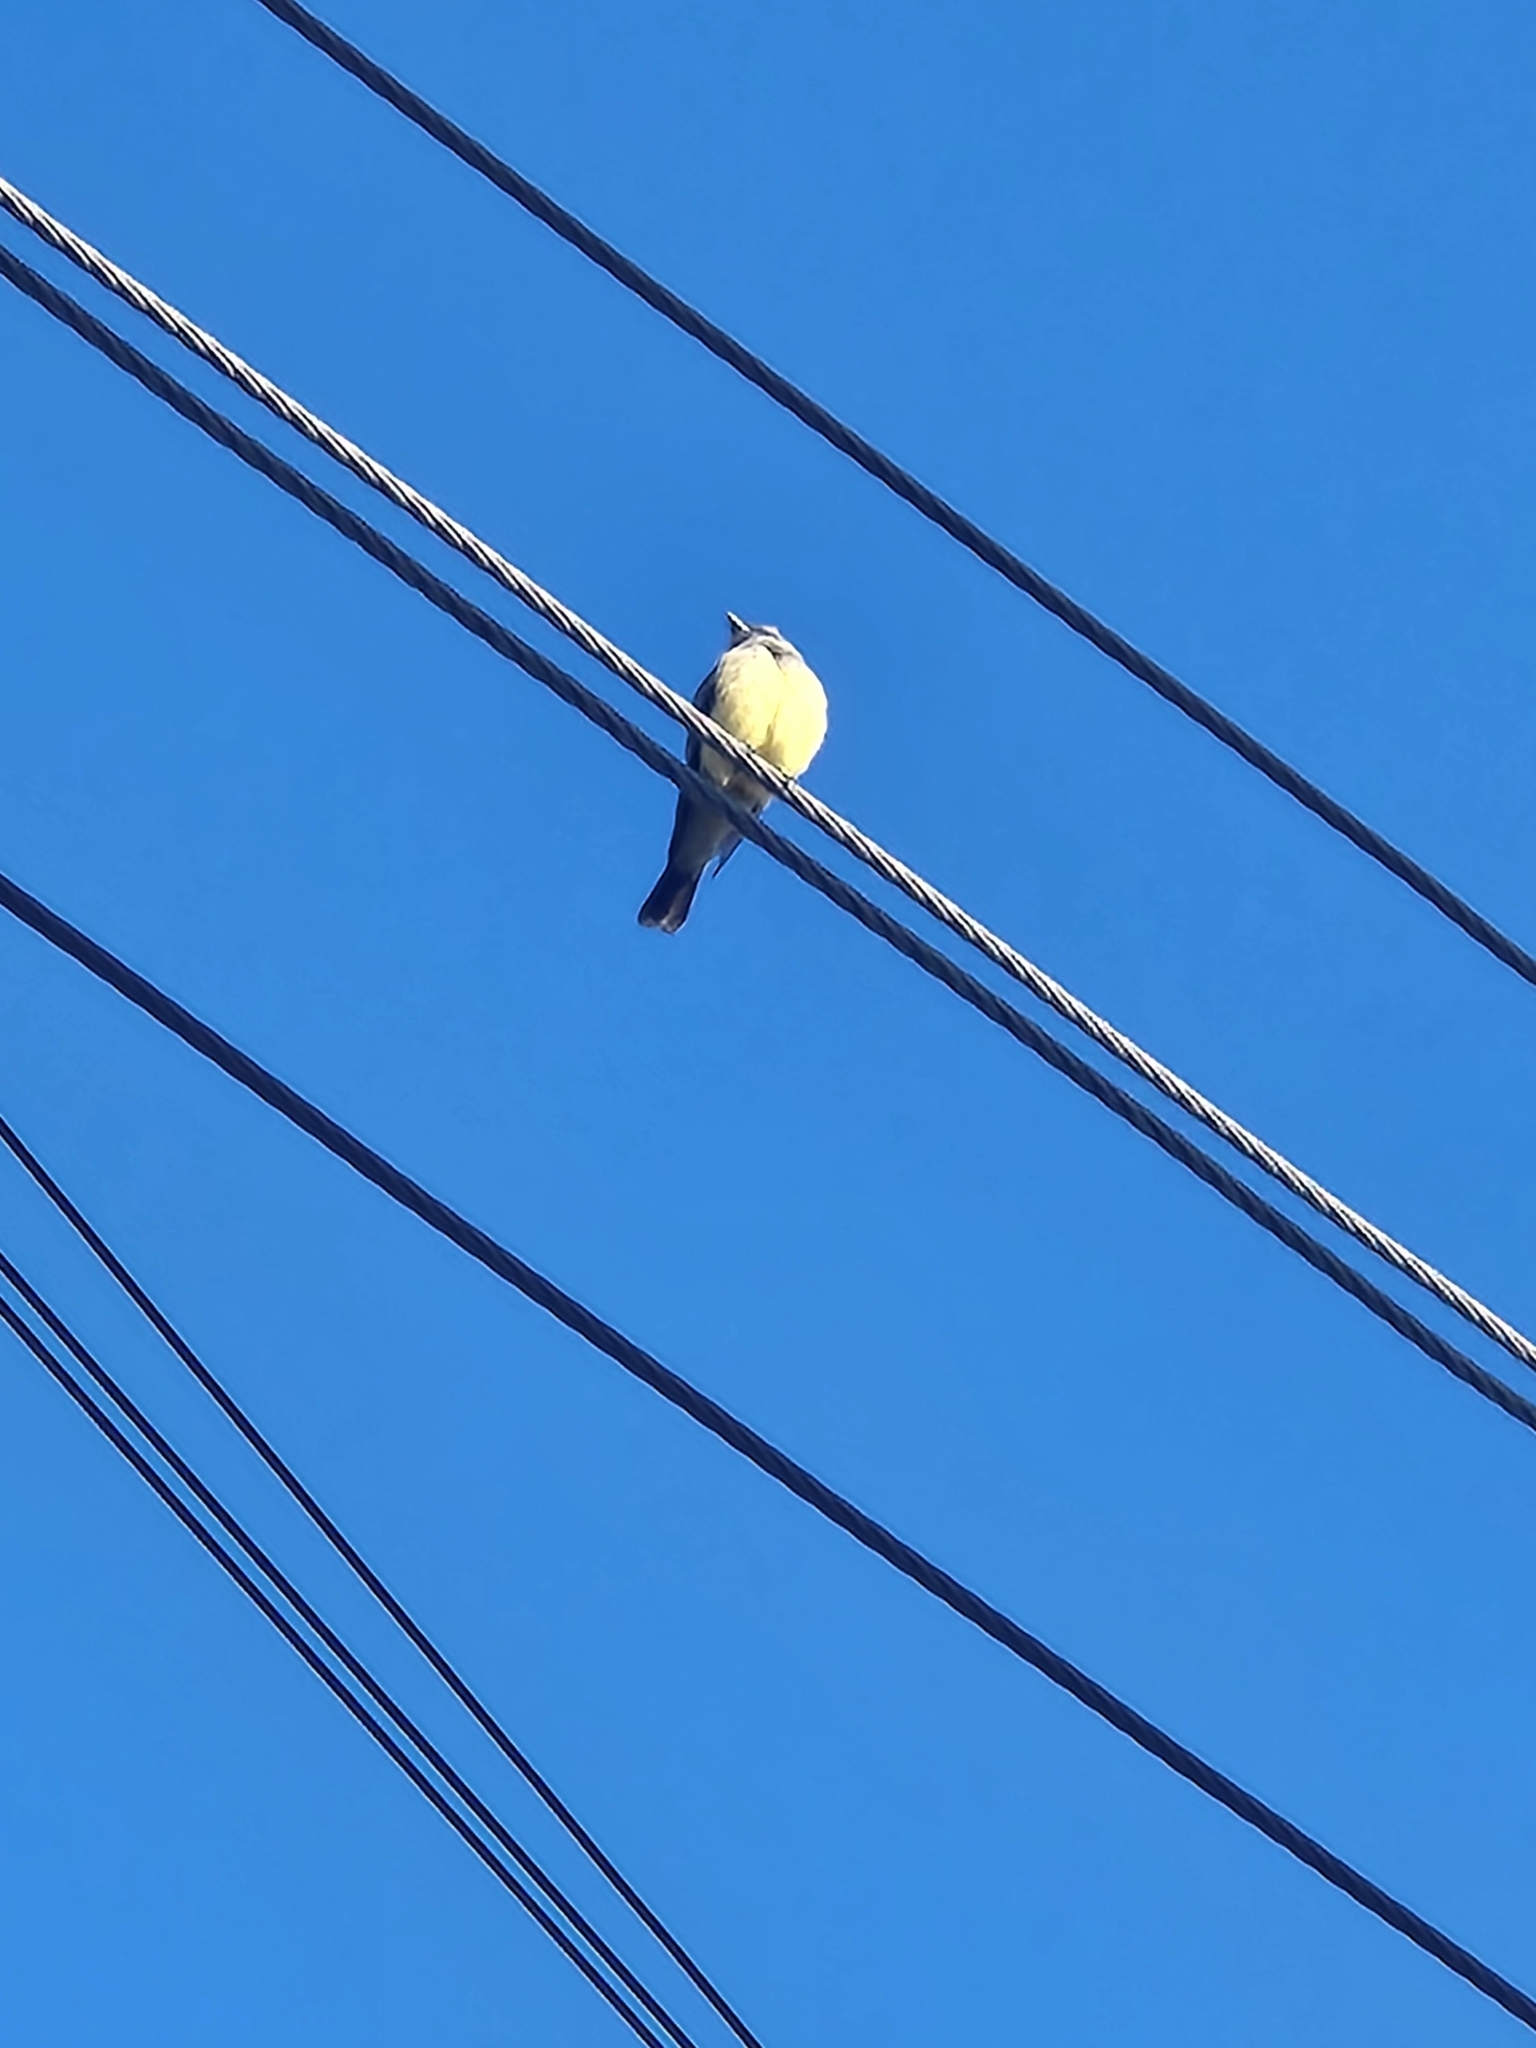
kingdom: Animalia
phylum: Chordata
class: Aves
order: Passeriformes
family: Tyrannidae
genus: Tyrannus
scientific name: Tyrannus vociferans
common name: Cassin's kingbird
